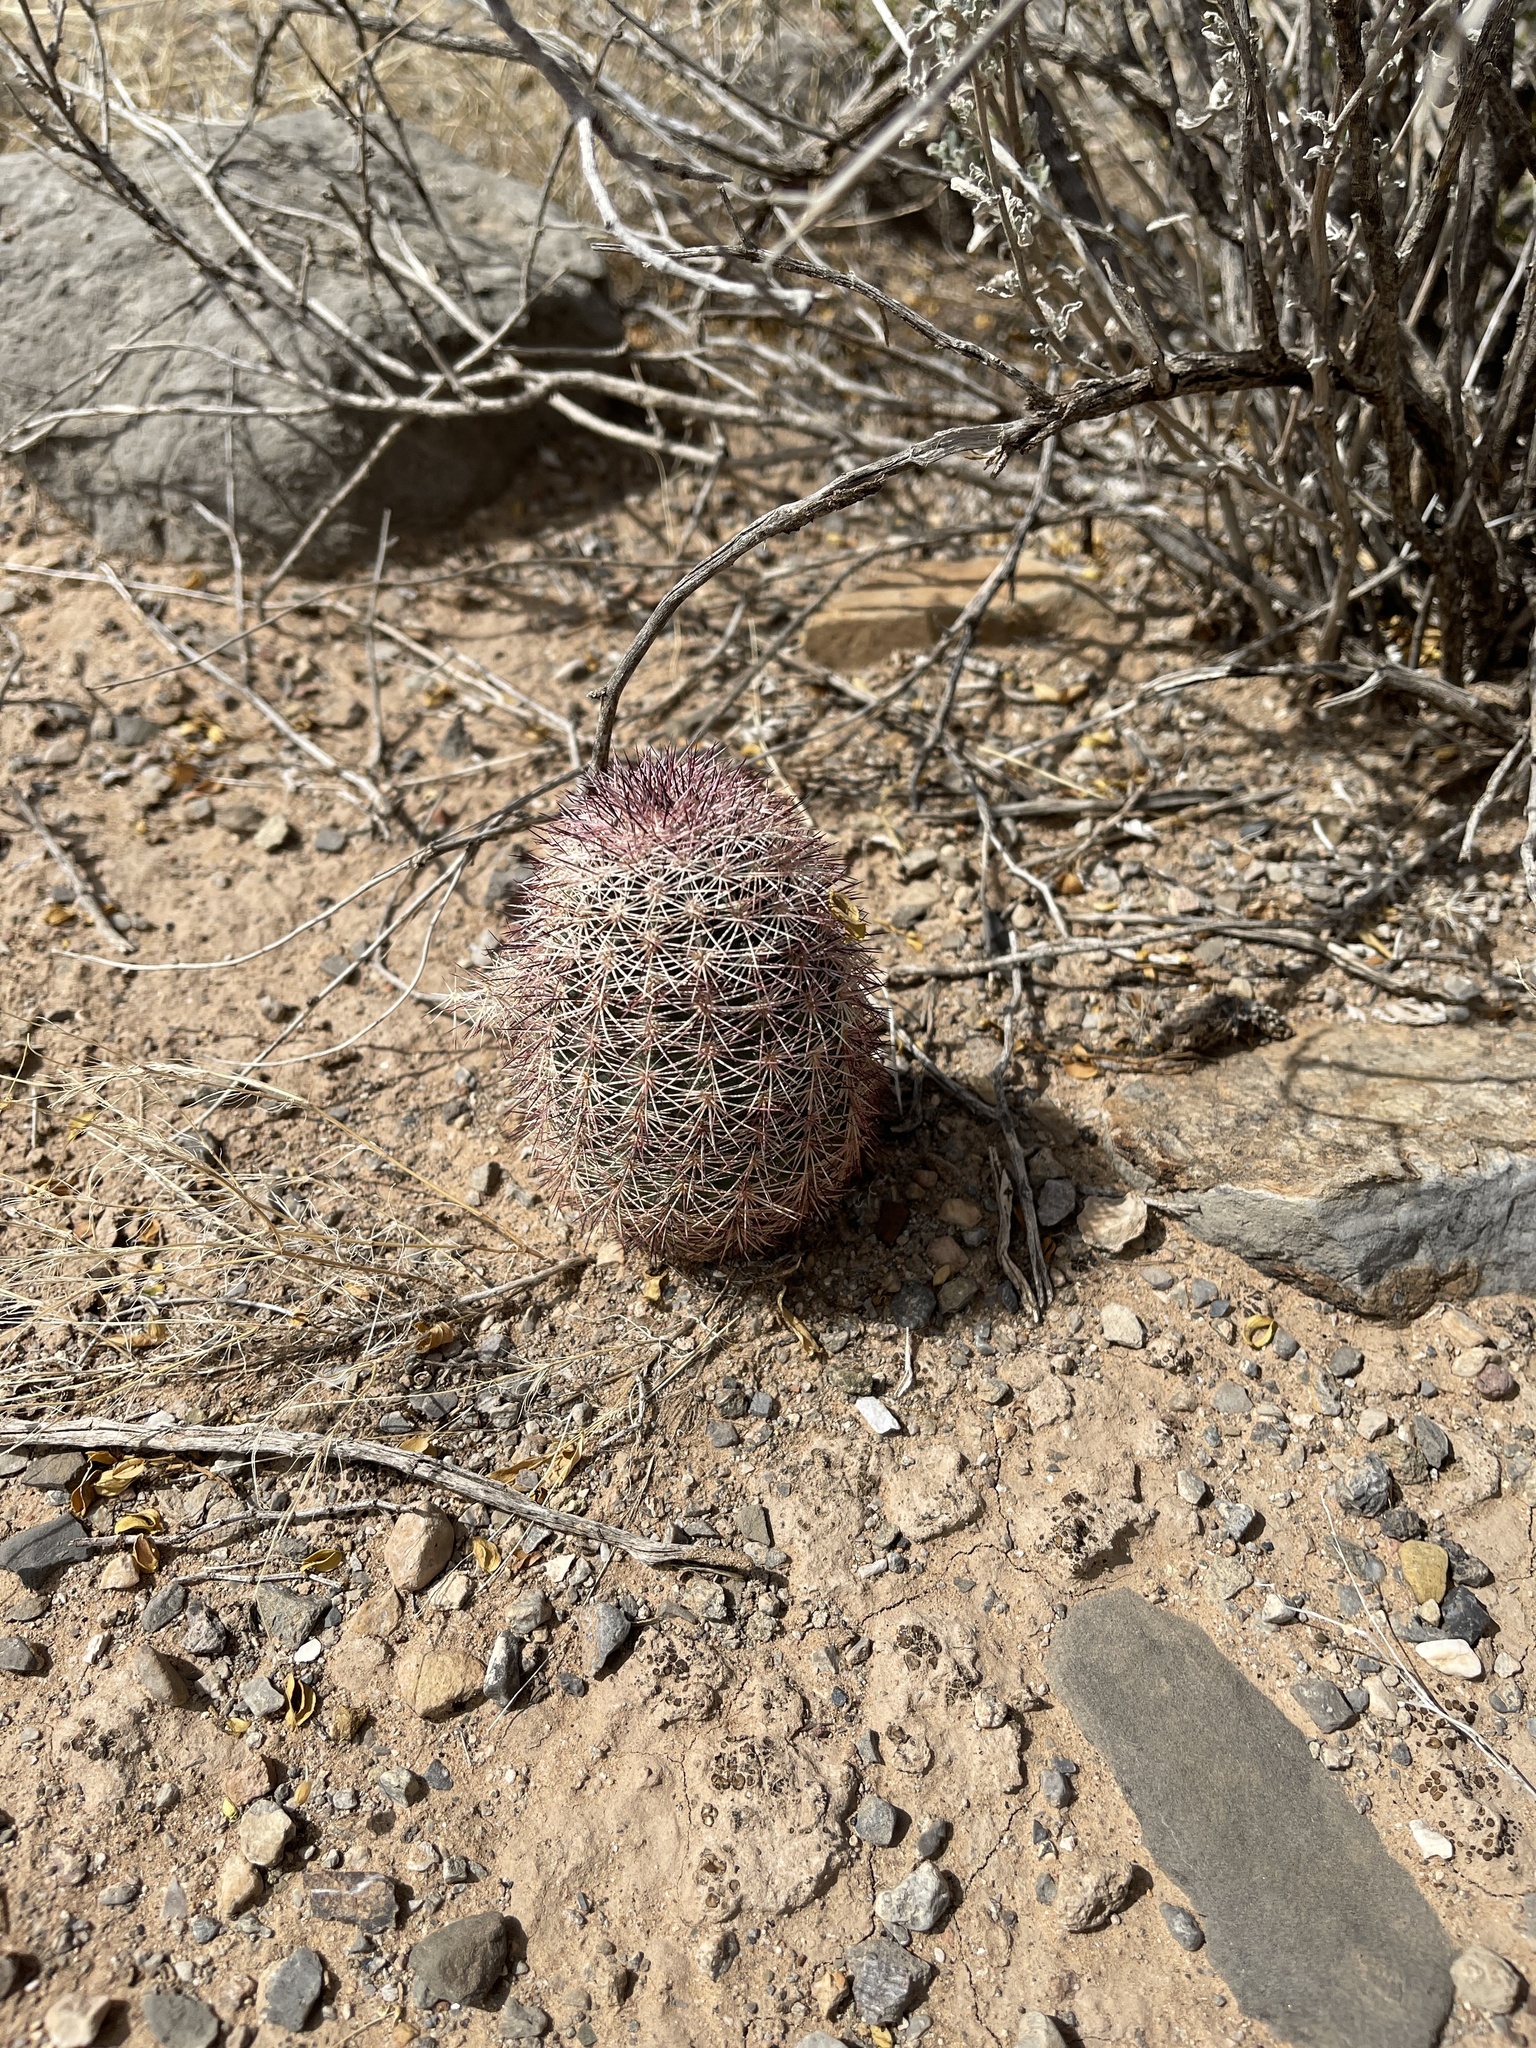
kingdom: Plantae
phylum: Tracheophyta
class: Magnoliopsida
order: Caryophyllales
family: Cactaceae
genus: Echinocereus
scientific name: Echinocereus dasyacanthus
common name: Spiny hedgehog cactus
